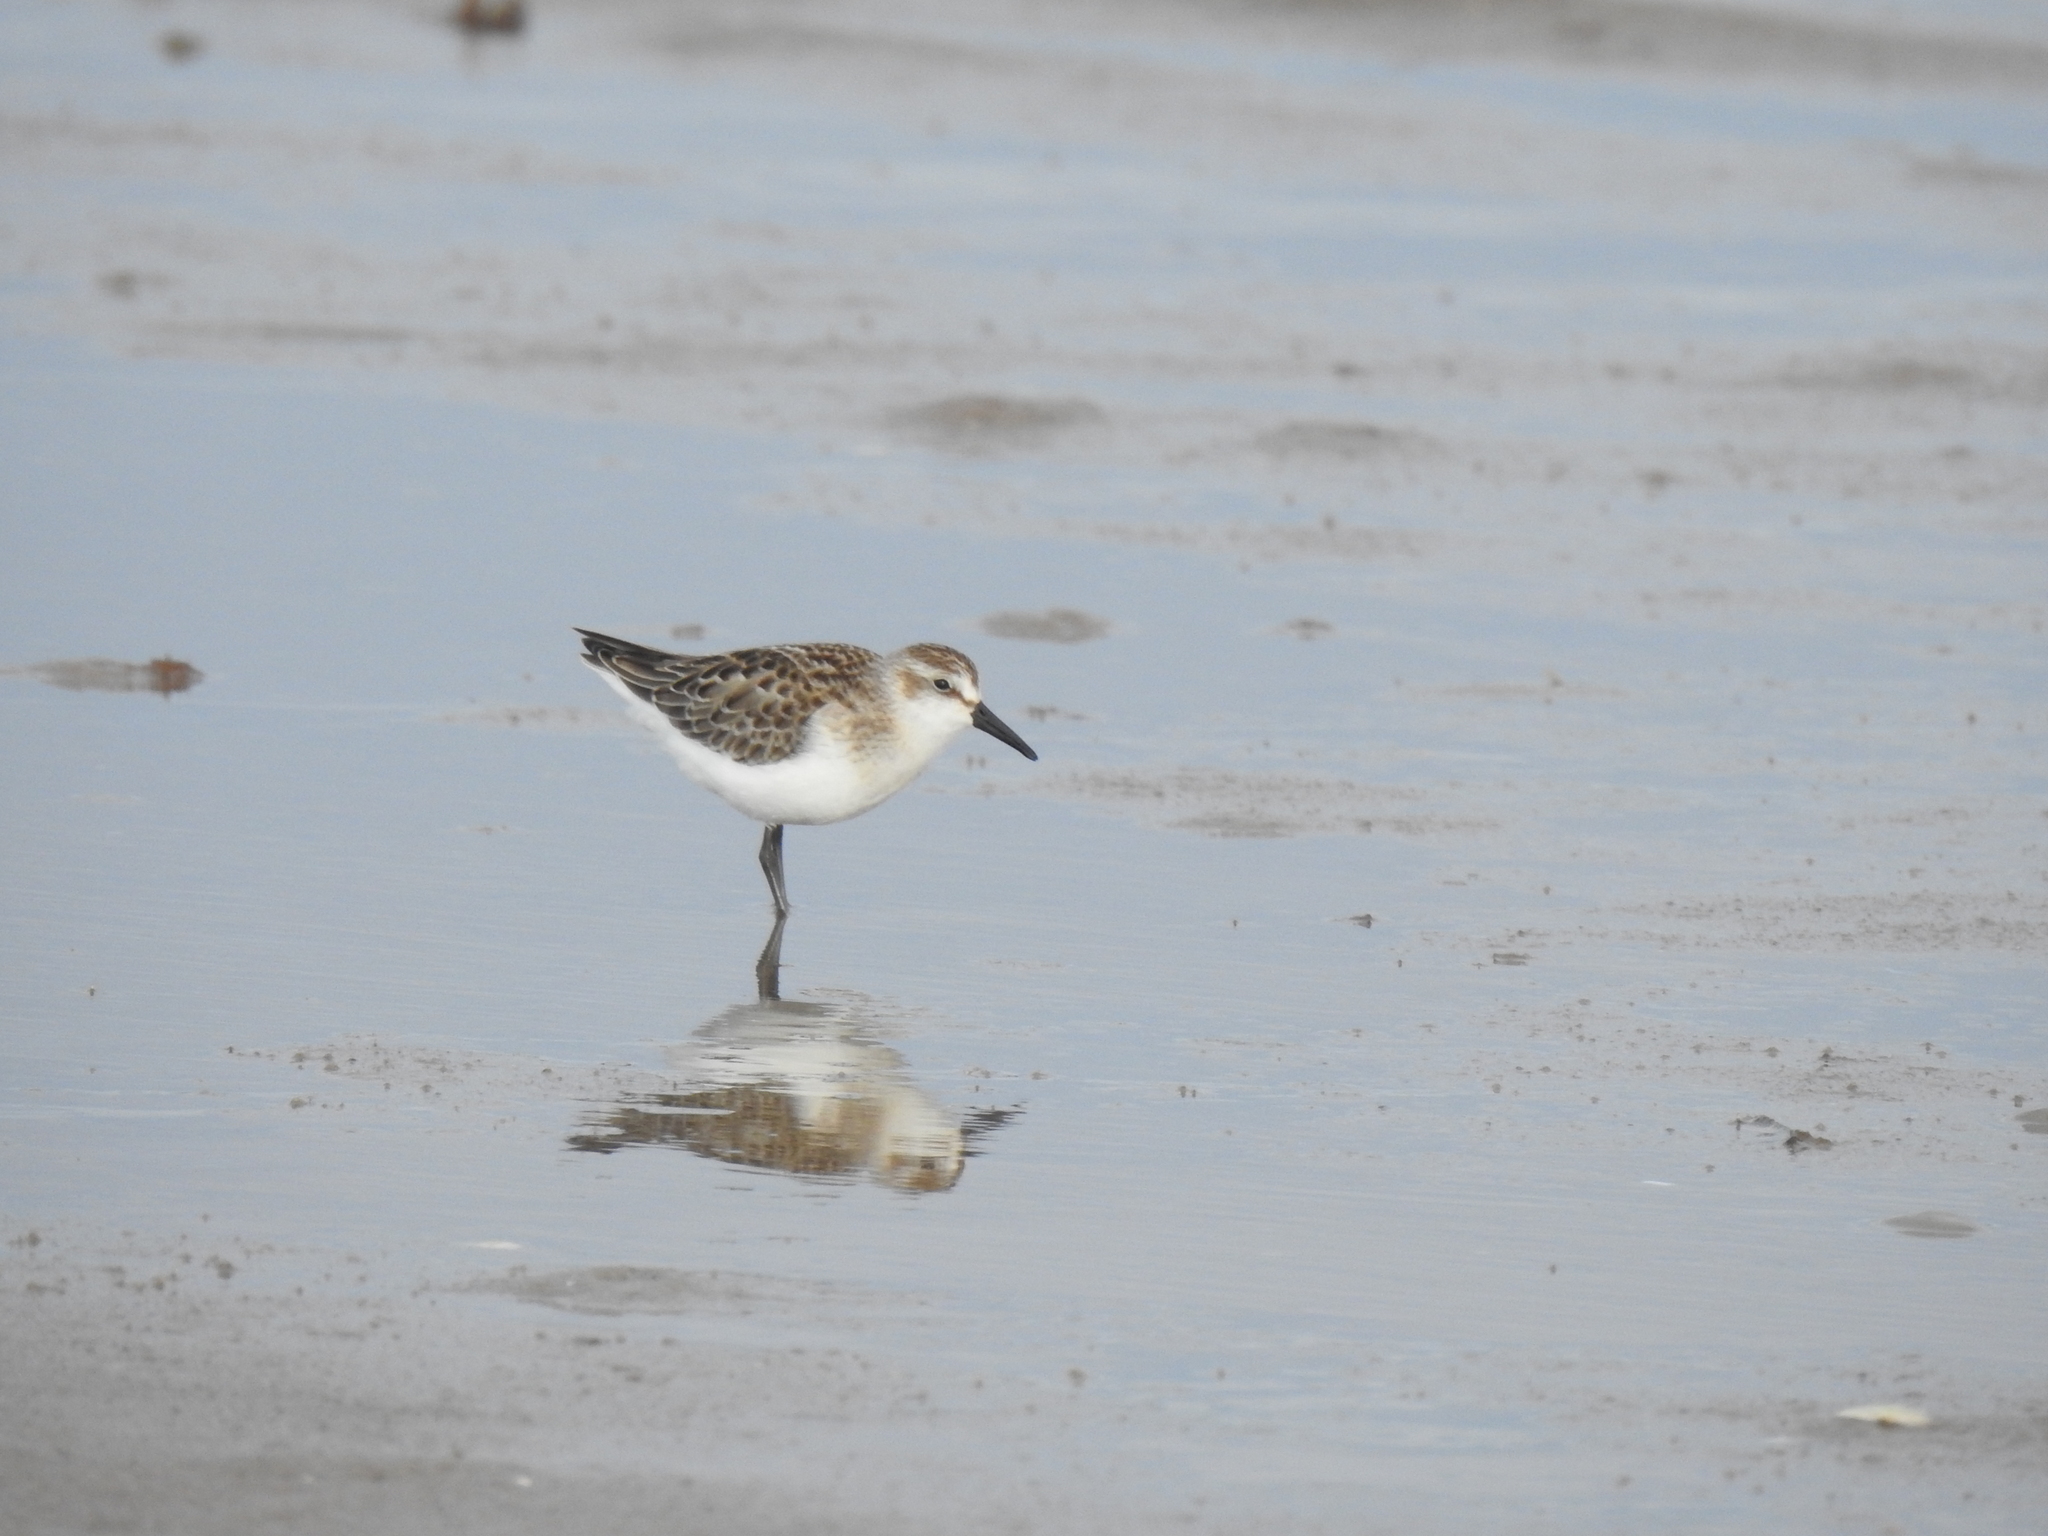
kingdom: Animalia
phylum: Chordata
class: Aves
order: Charadriiformes
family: Scolopacidae
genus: Calidris
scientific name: Calidris pusilla
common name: Semipalmated sandpiper
